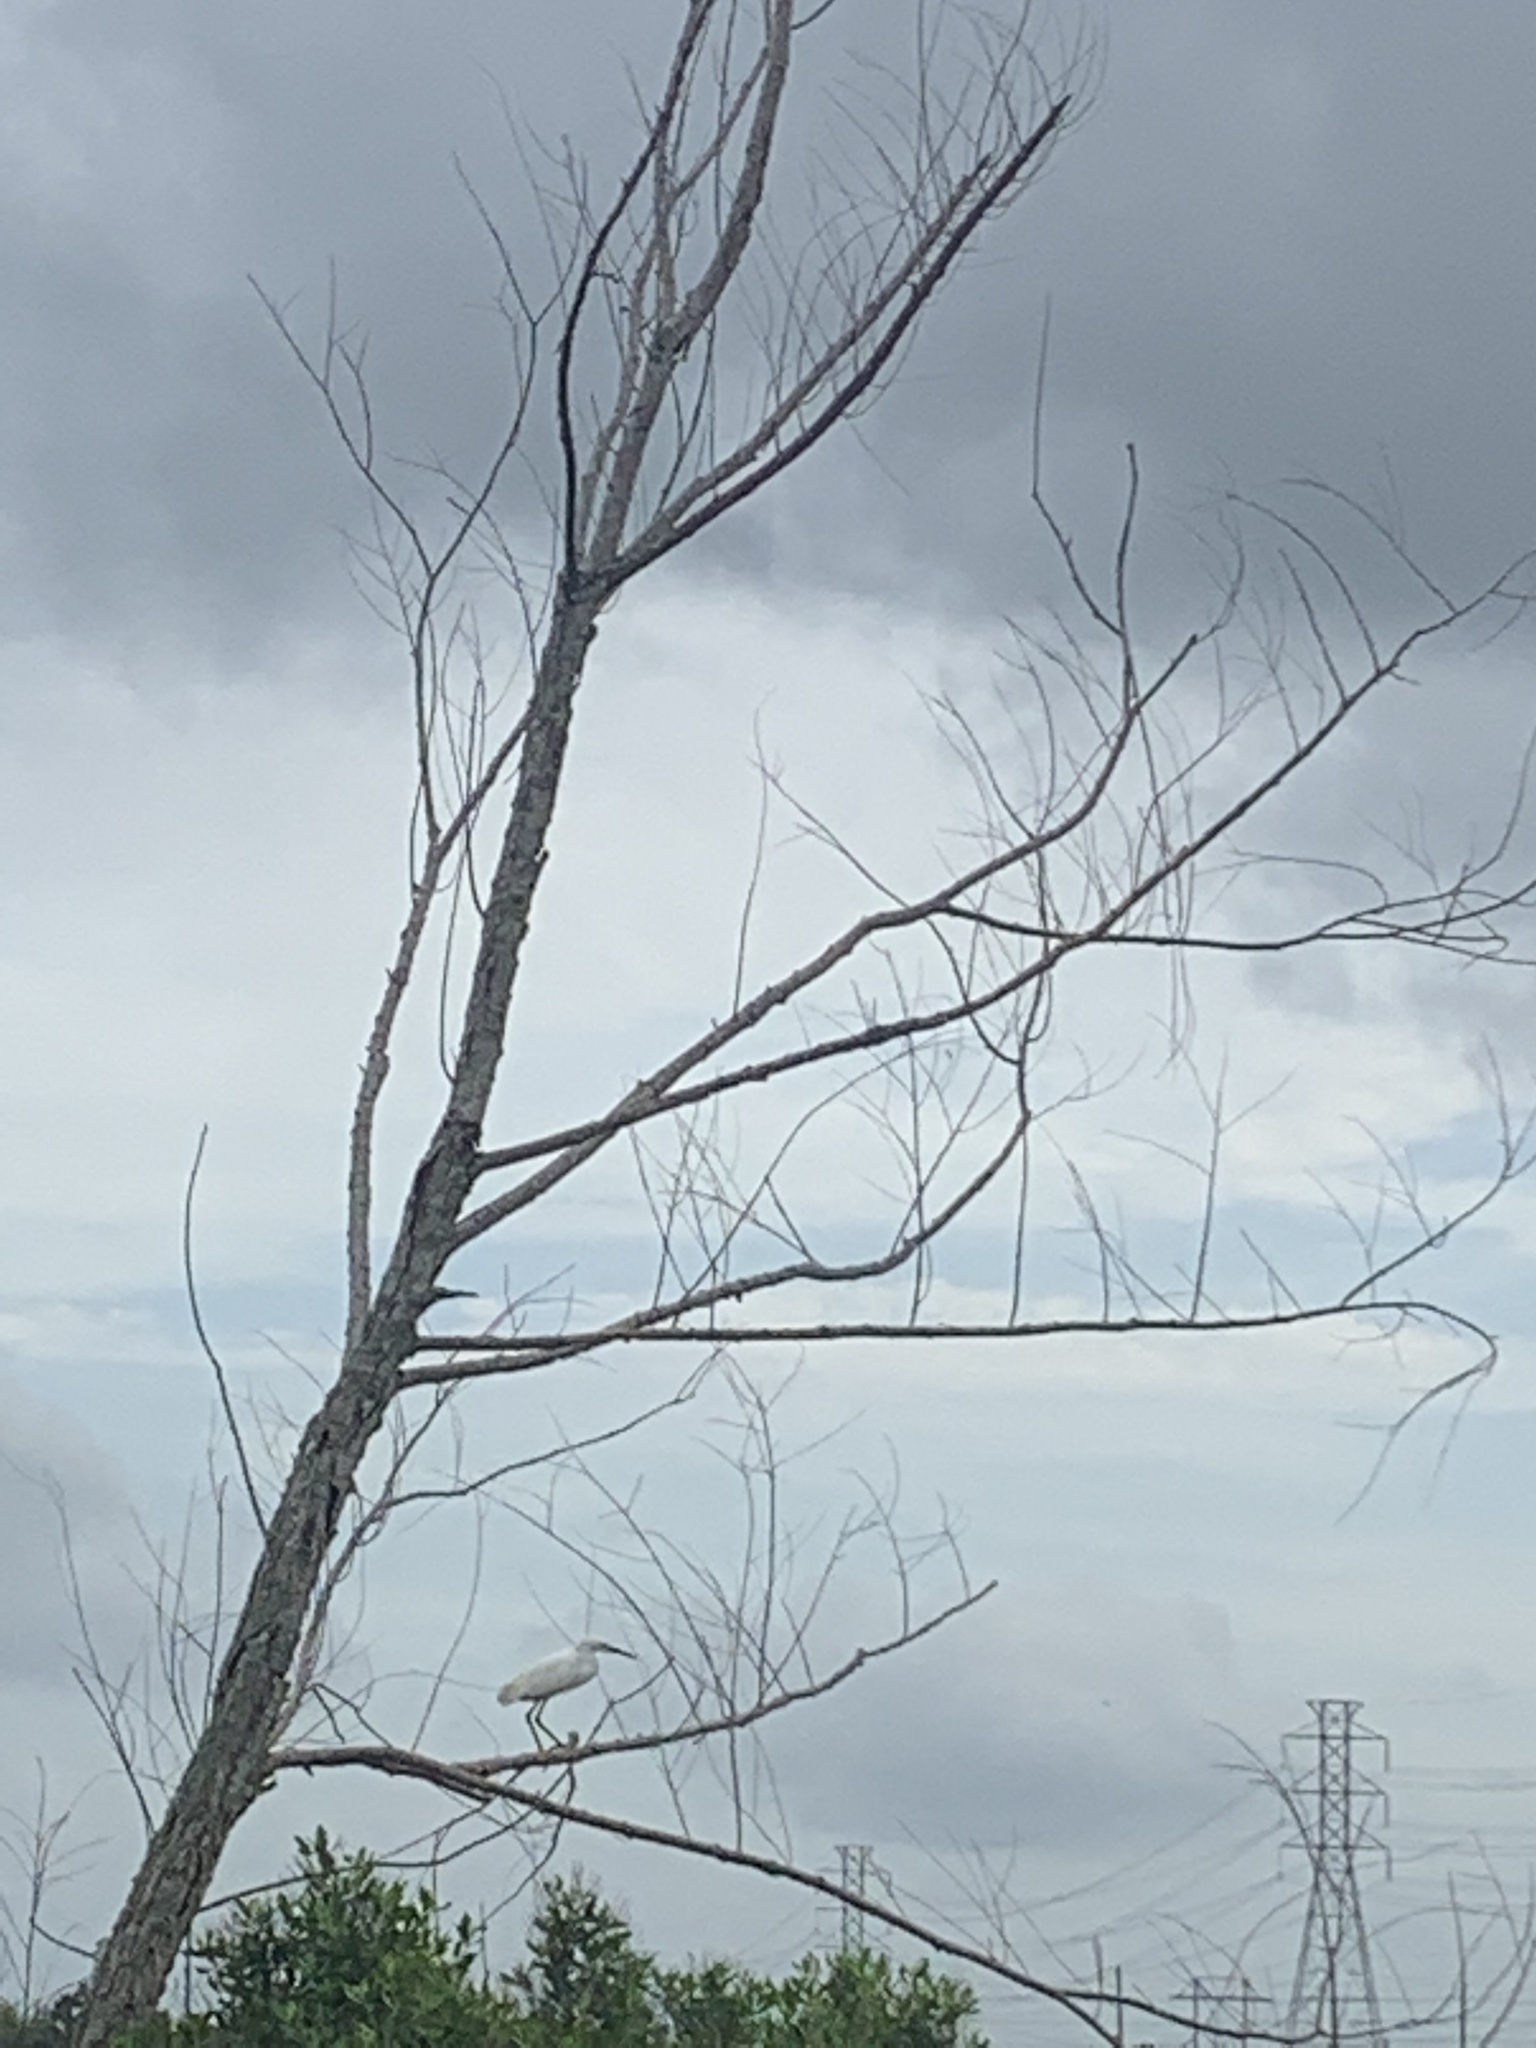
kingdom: Animalia
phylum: Chordata
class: Aves
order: Pelecaniformes
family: Ardeidae
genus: Egretta
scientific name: Egretta thula
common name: Snowy egret
